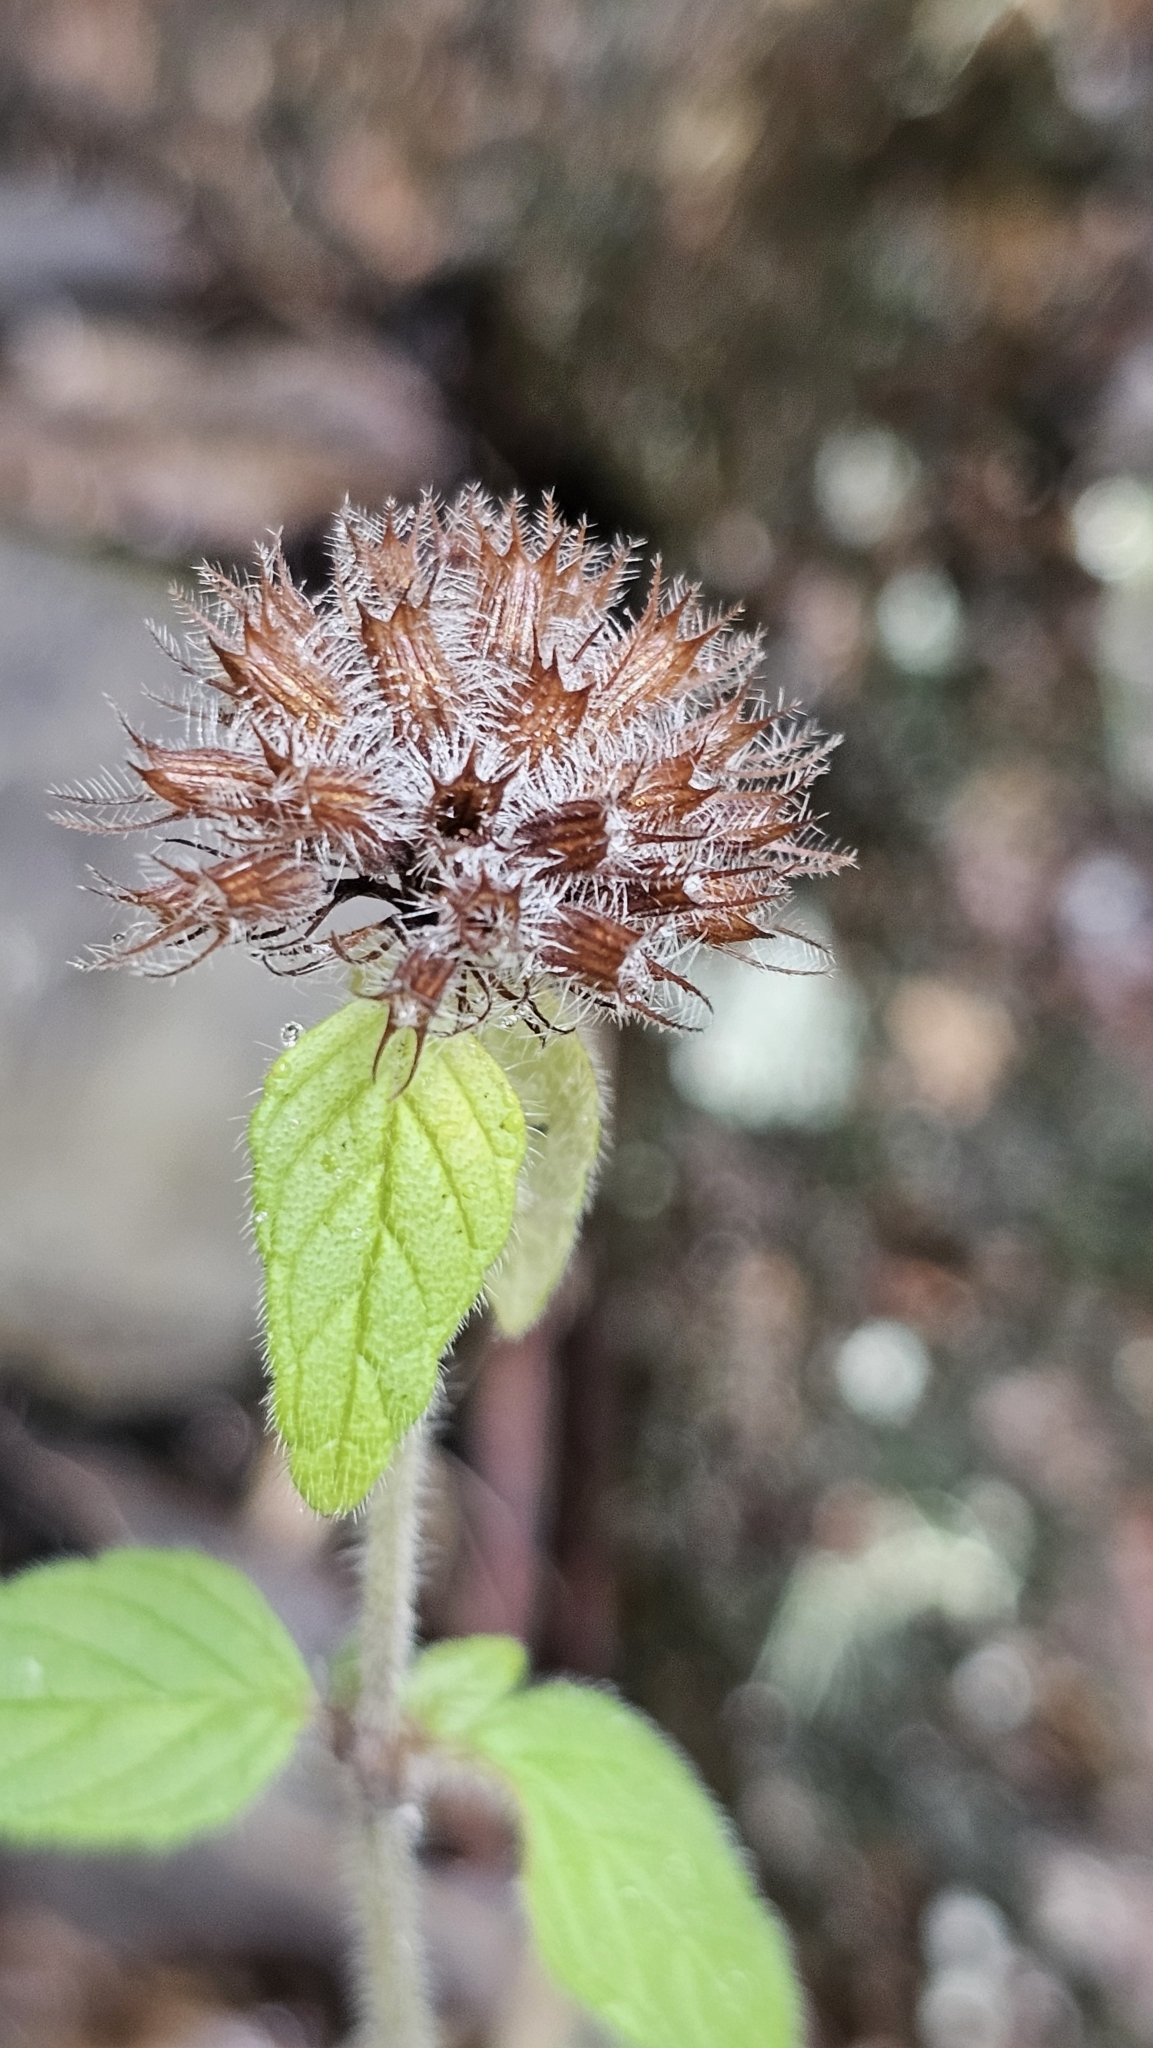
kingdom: Plantae
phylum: Tracheophyta
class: Magnoliopsida
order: Lamiales
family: Lamiaceae
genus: Clinopodium
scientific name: Clinopodium vulgare
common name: Wild basil
